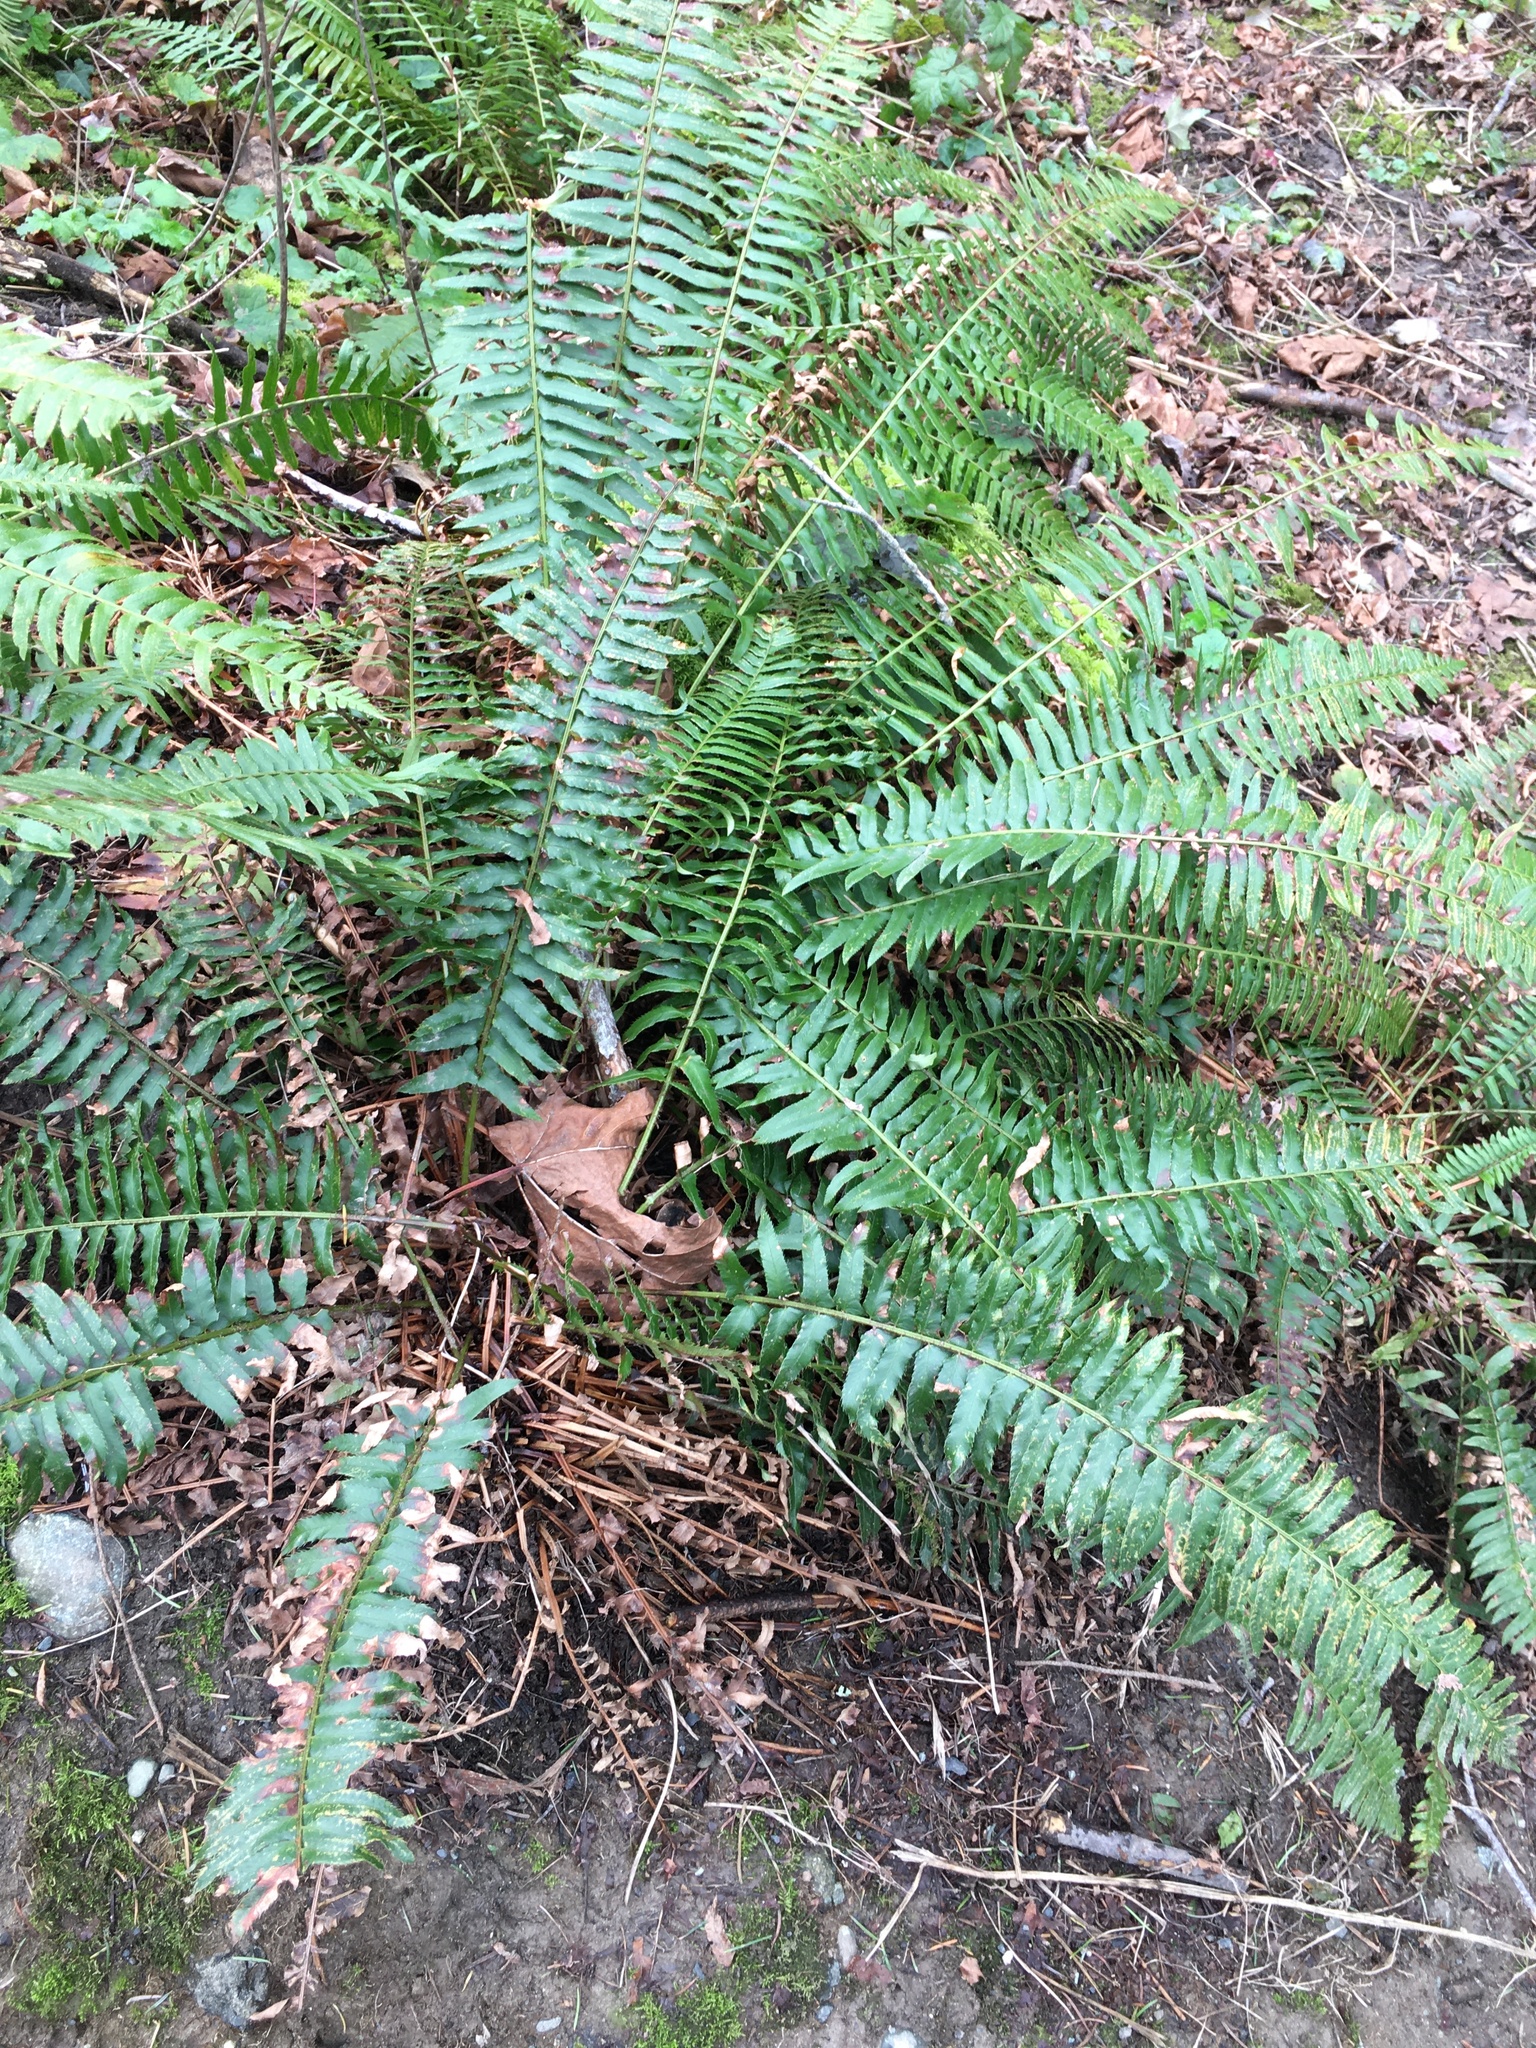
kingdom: Plantae
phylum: Tracheophyta
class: Polypodiopsida
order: Polypodiales
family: Dryopteridaceae
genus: Polystichum
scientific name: Polystichum munitum
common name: Western sword-fern
